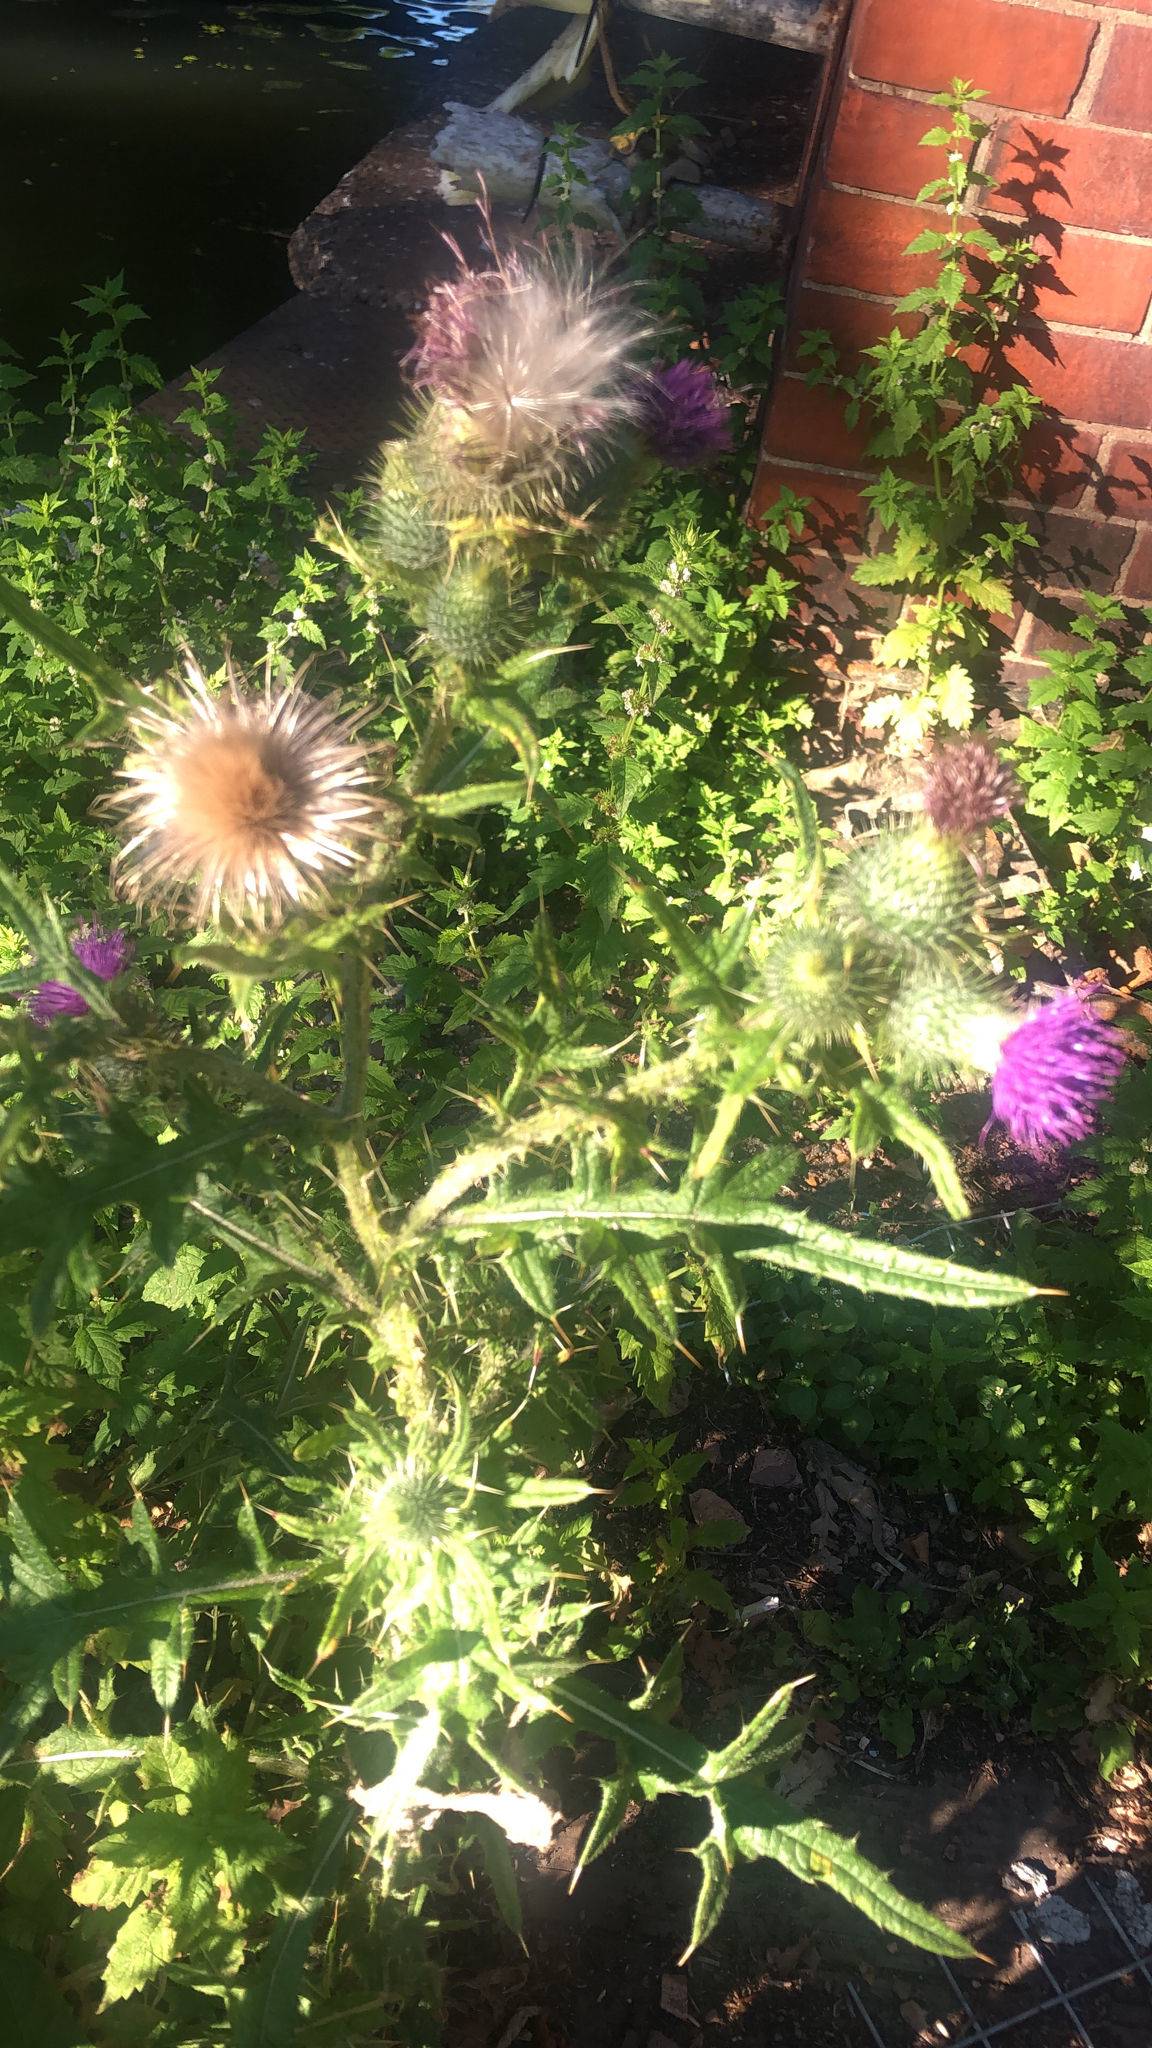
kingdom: Plantae
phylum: Tracheophyta
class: Magnoliopsida
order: Asterales
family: Asteraceae
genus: Cirsium
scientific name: Cirsium vulgare
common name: Bull thistle
